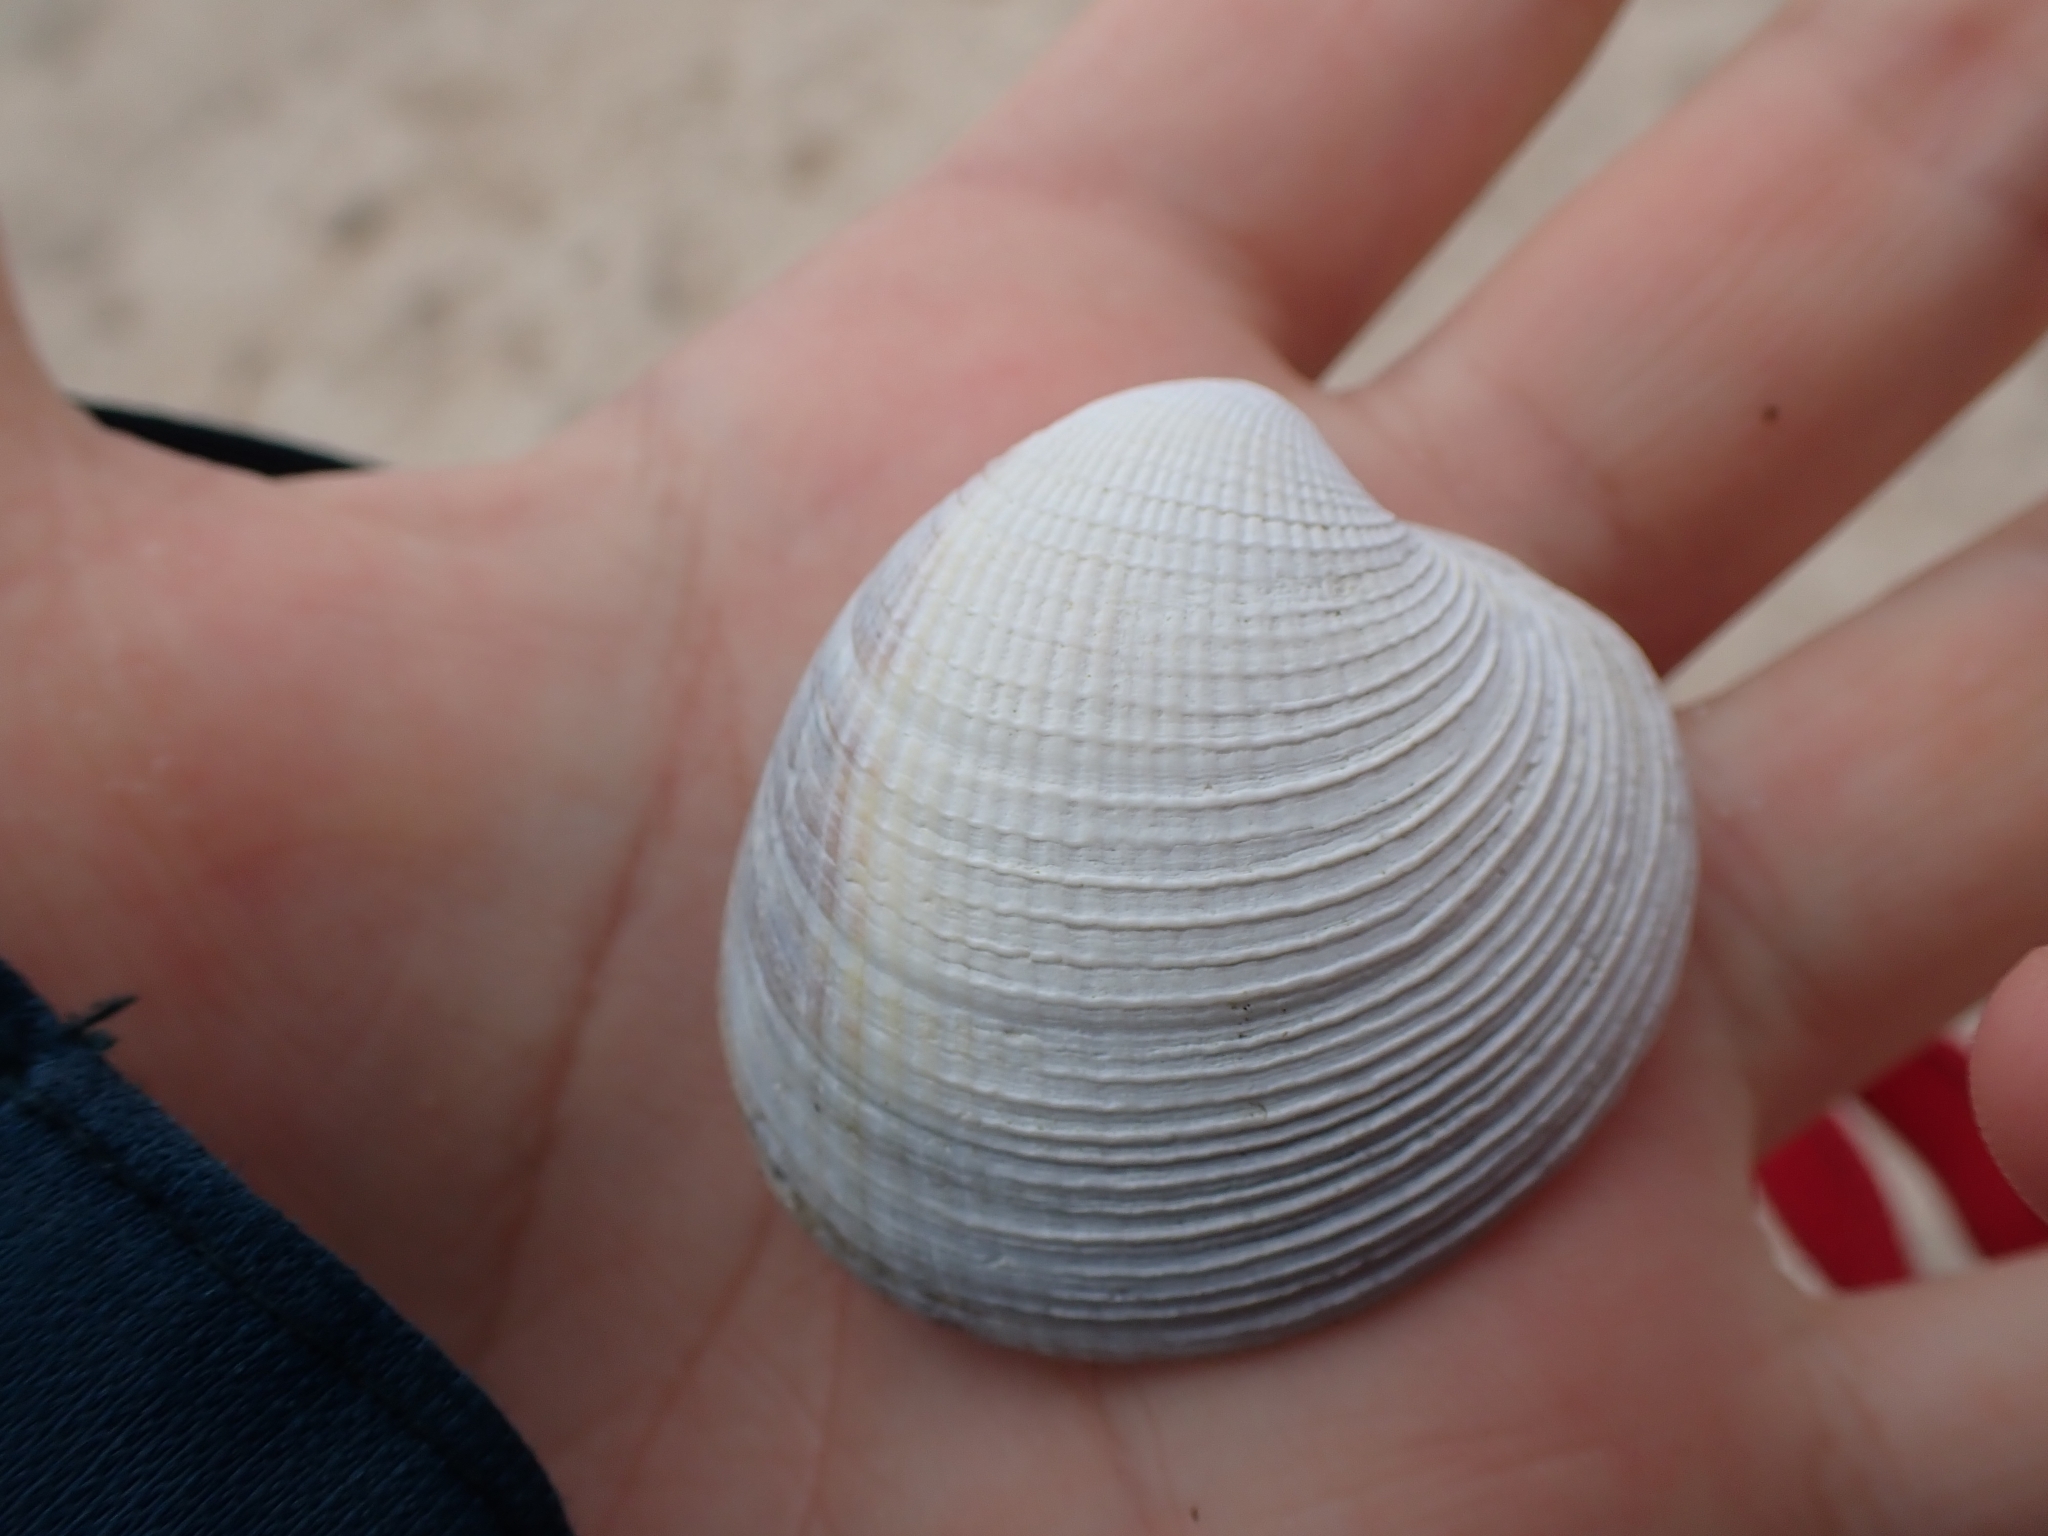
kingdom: Animalia
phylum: Mollusca
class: Bivalvia
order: Venerida
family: Veneridae
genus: Austrovenus
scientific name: Austrovenus stutchburyi
